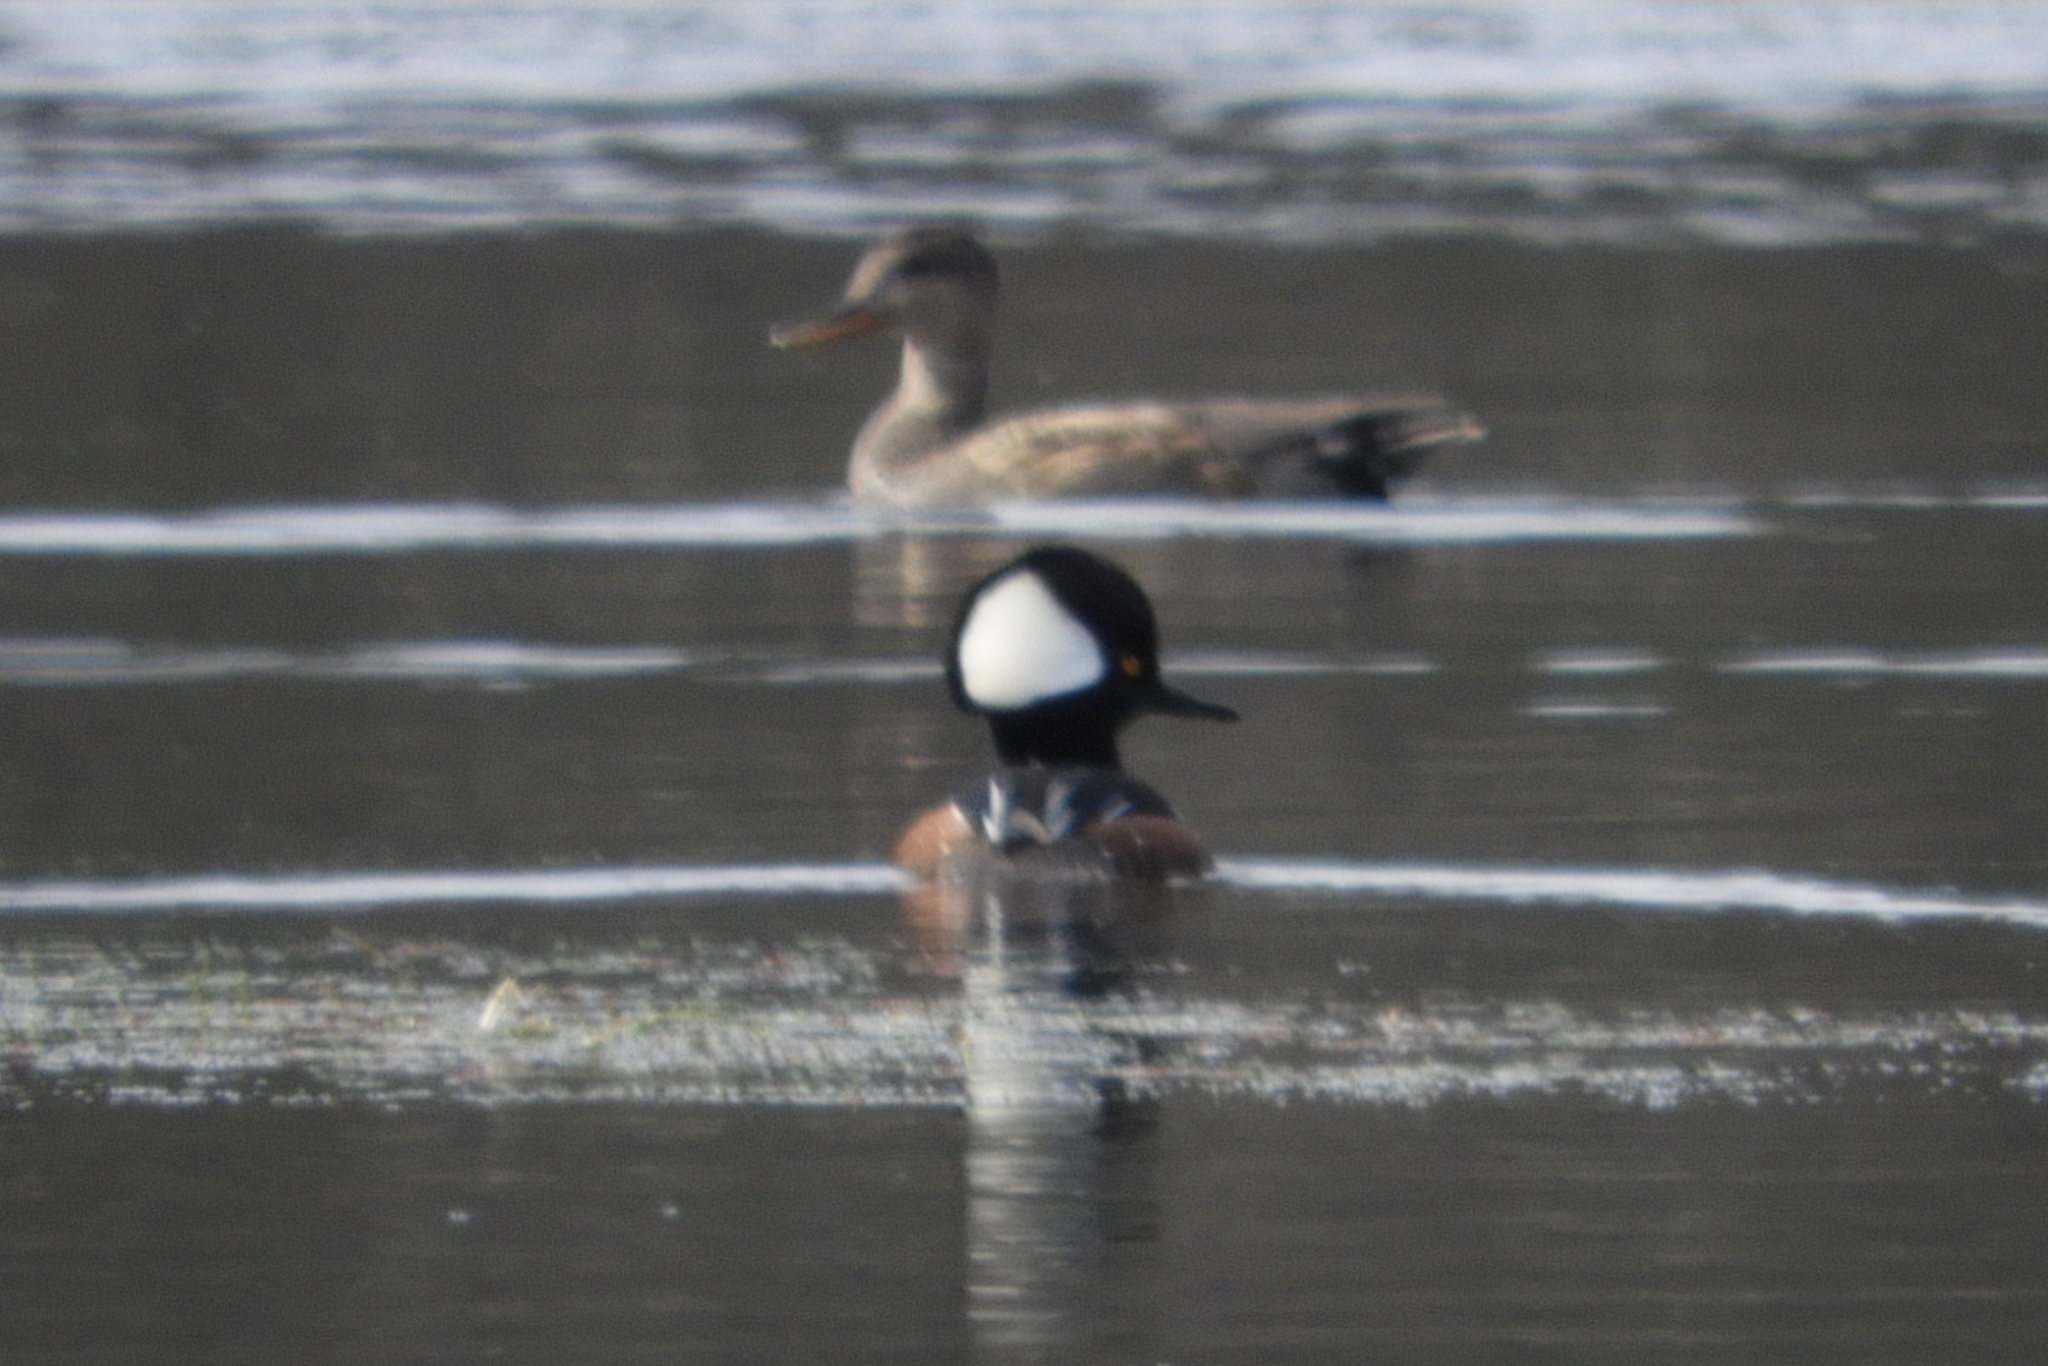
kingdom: Animalia
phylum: Chordata
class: Aves
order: Anseriformes
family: Anatidae
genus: Lophodytes
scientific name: Lophodytes cucullatus
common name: Hooded merganser
